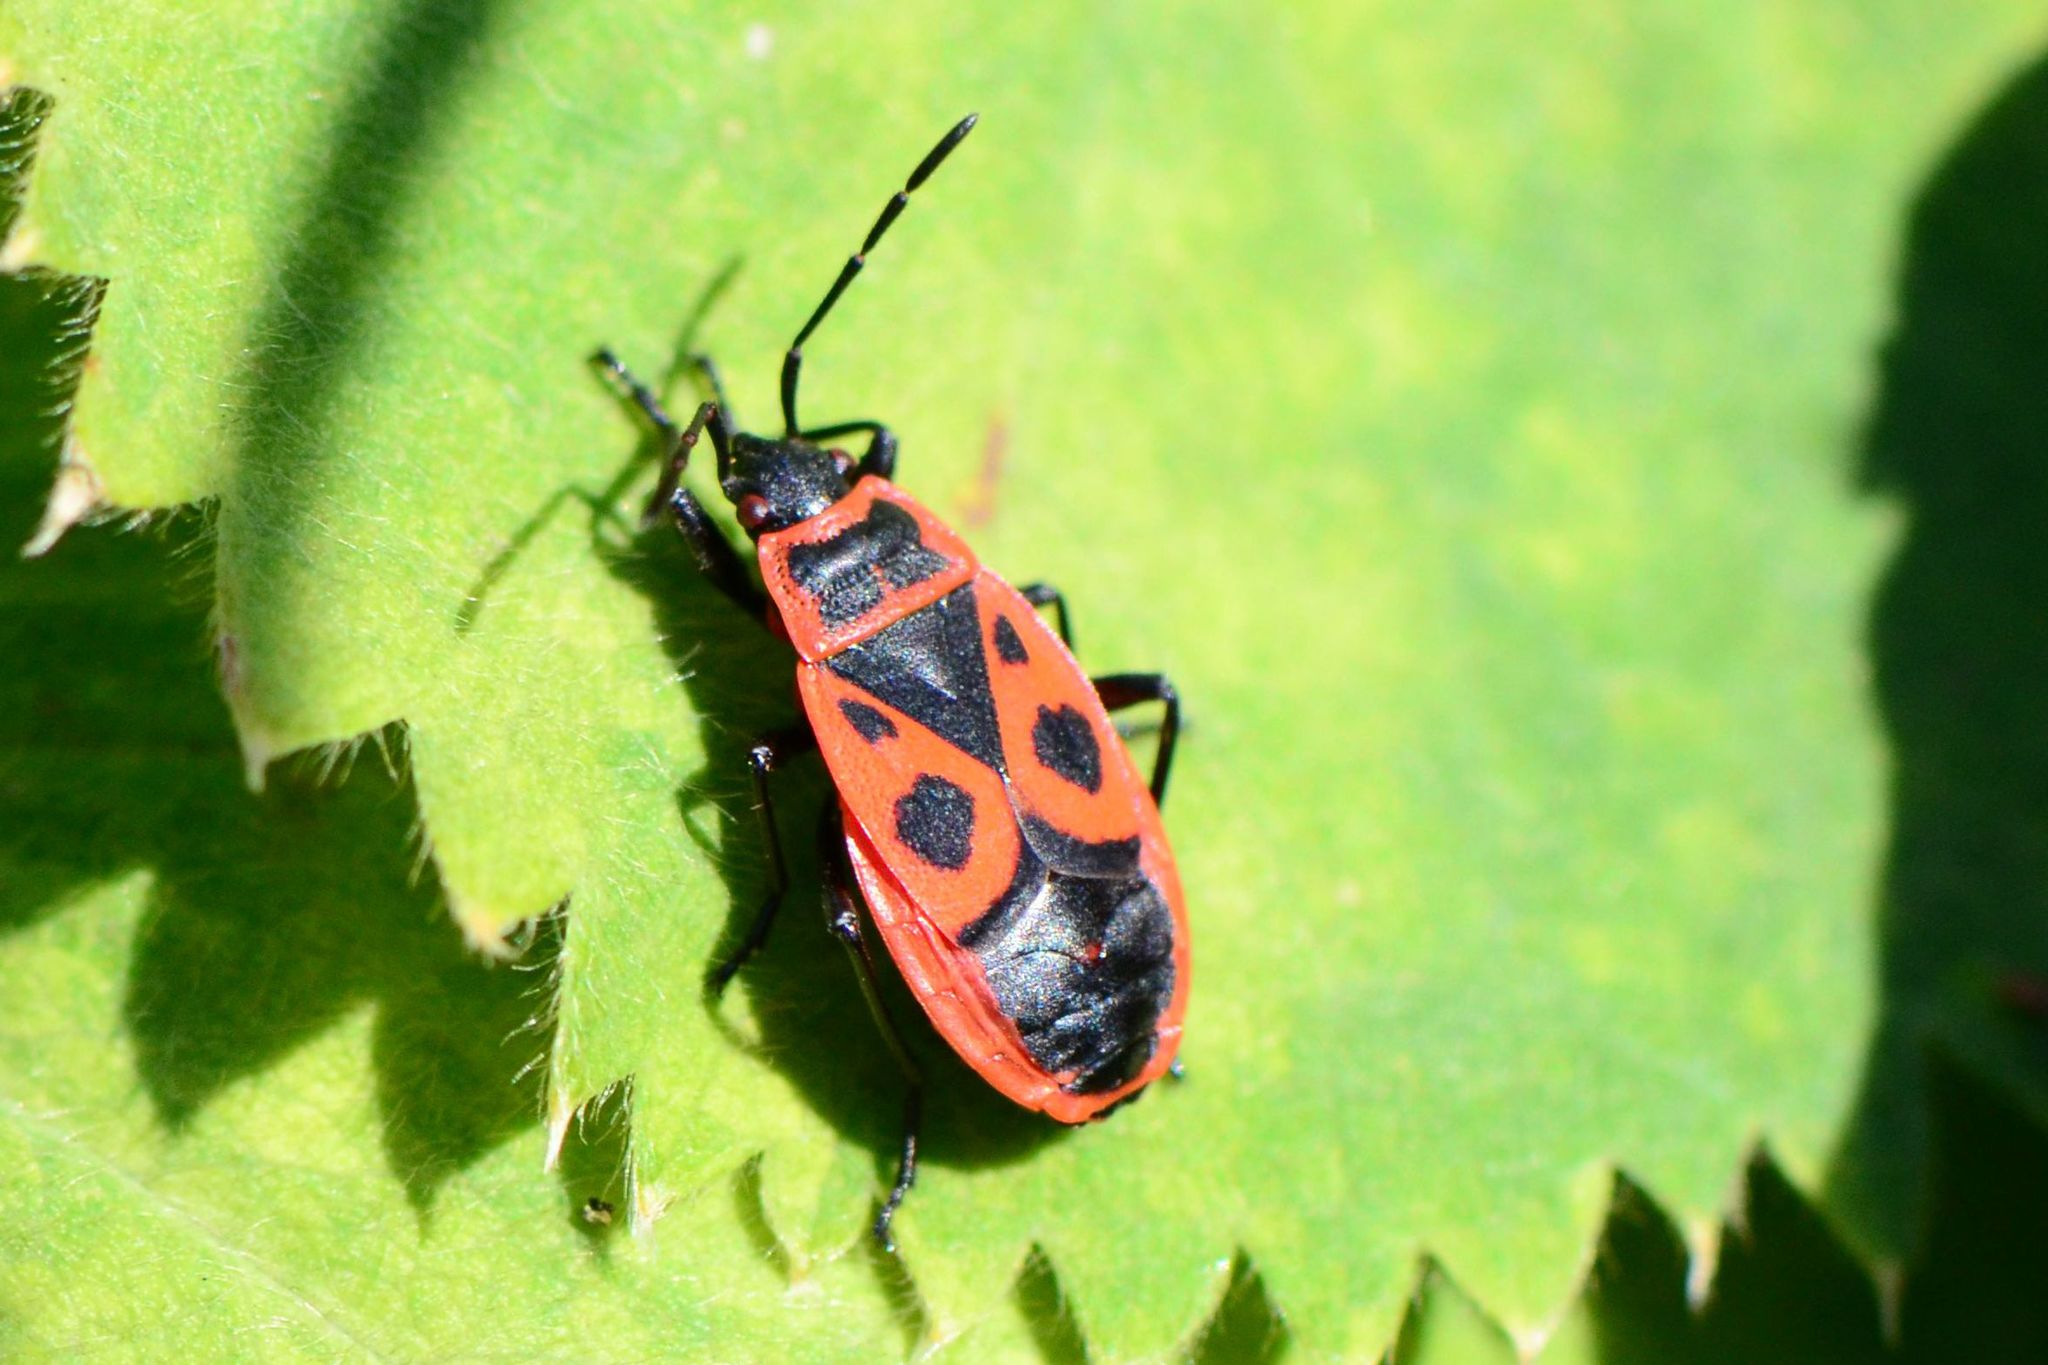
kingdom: Animalia
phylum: Arthropoda
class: Insecta
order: Hemiptera
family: Pyrrhocoridae
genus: Pyrrhocoris
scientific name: Pyrrhocoris apterus
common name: Firebug
